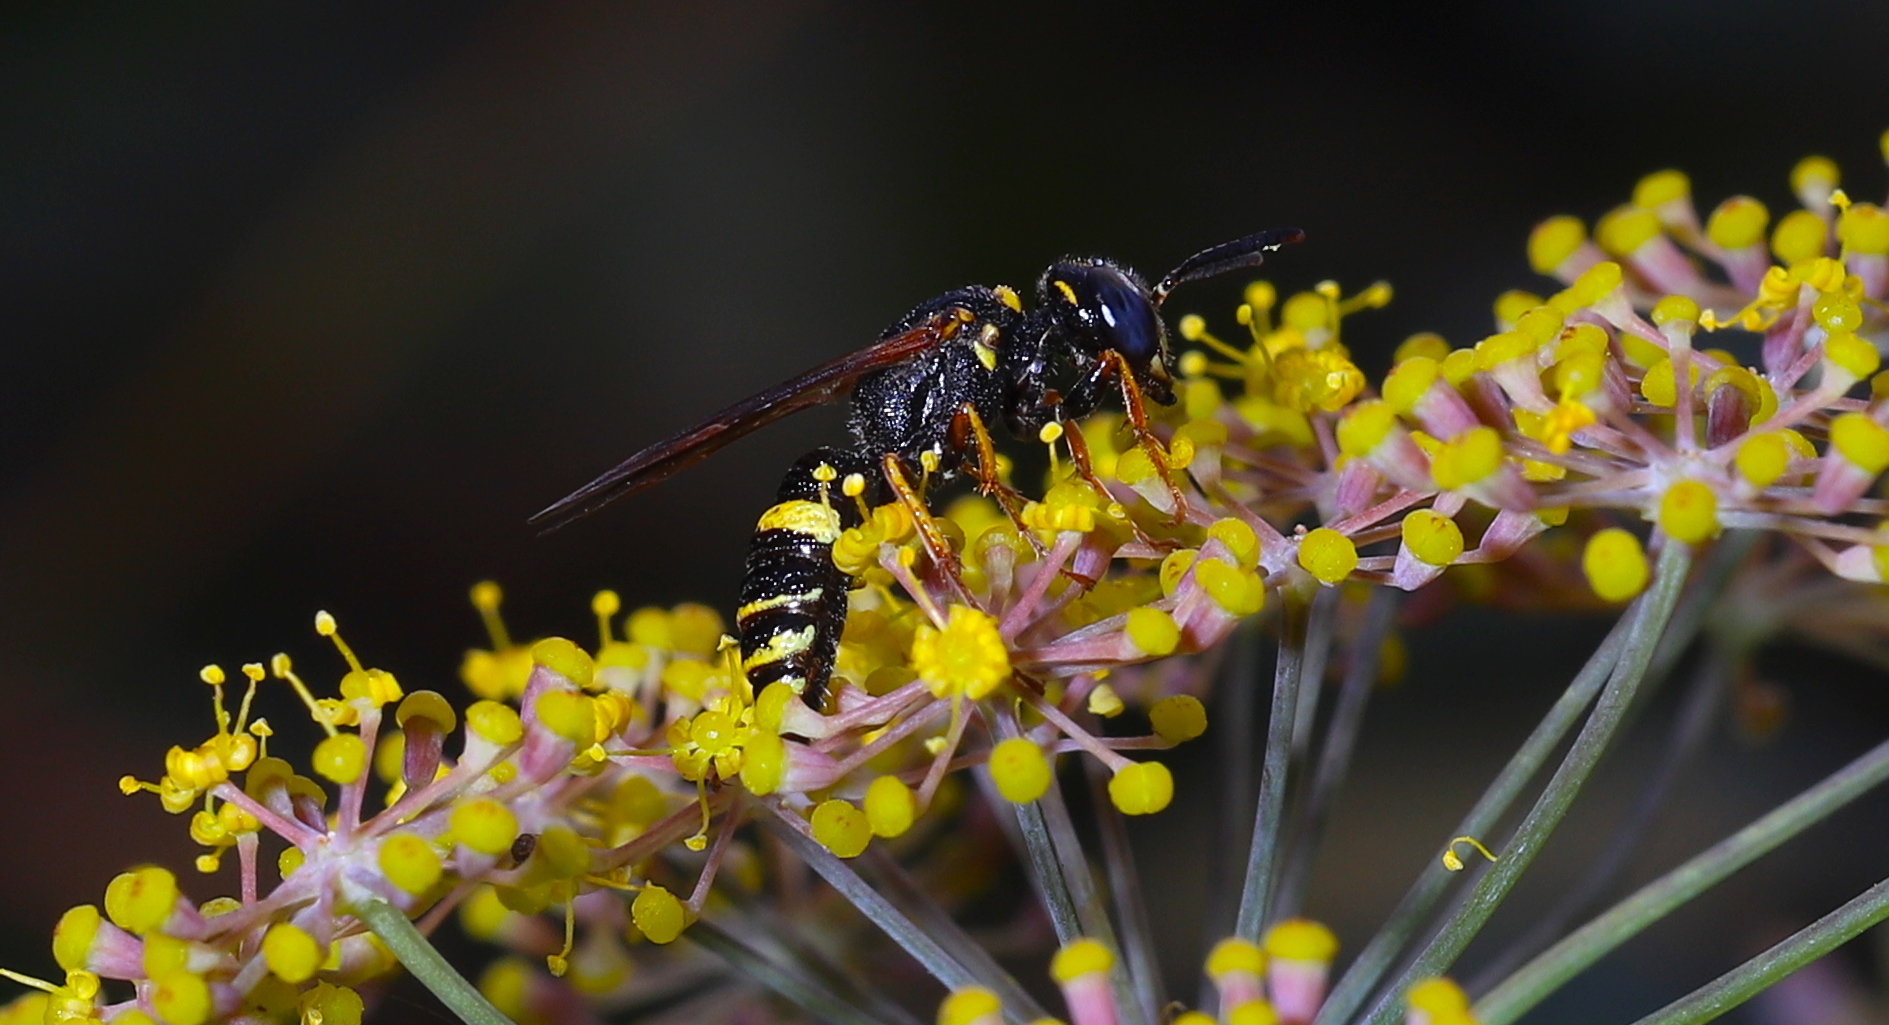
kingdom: Animalia
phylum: Arthropoda
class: Insecta
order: Hymenoptera
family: Crabronidae
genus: Philanthus
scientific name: Philanthus gibbosus
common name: Humped beewolf
